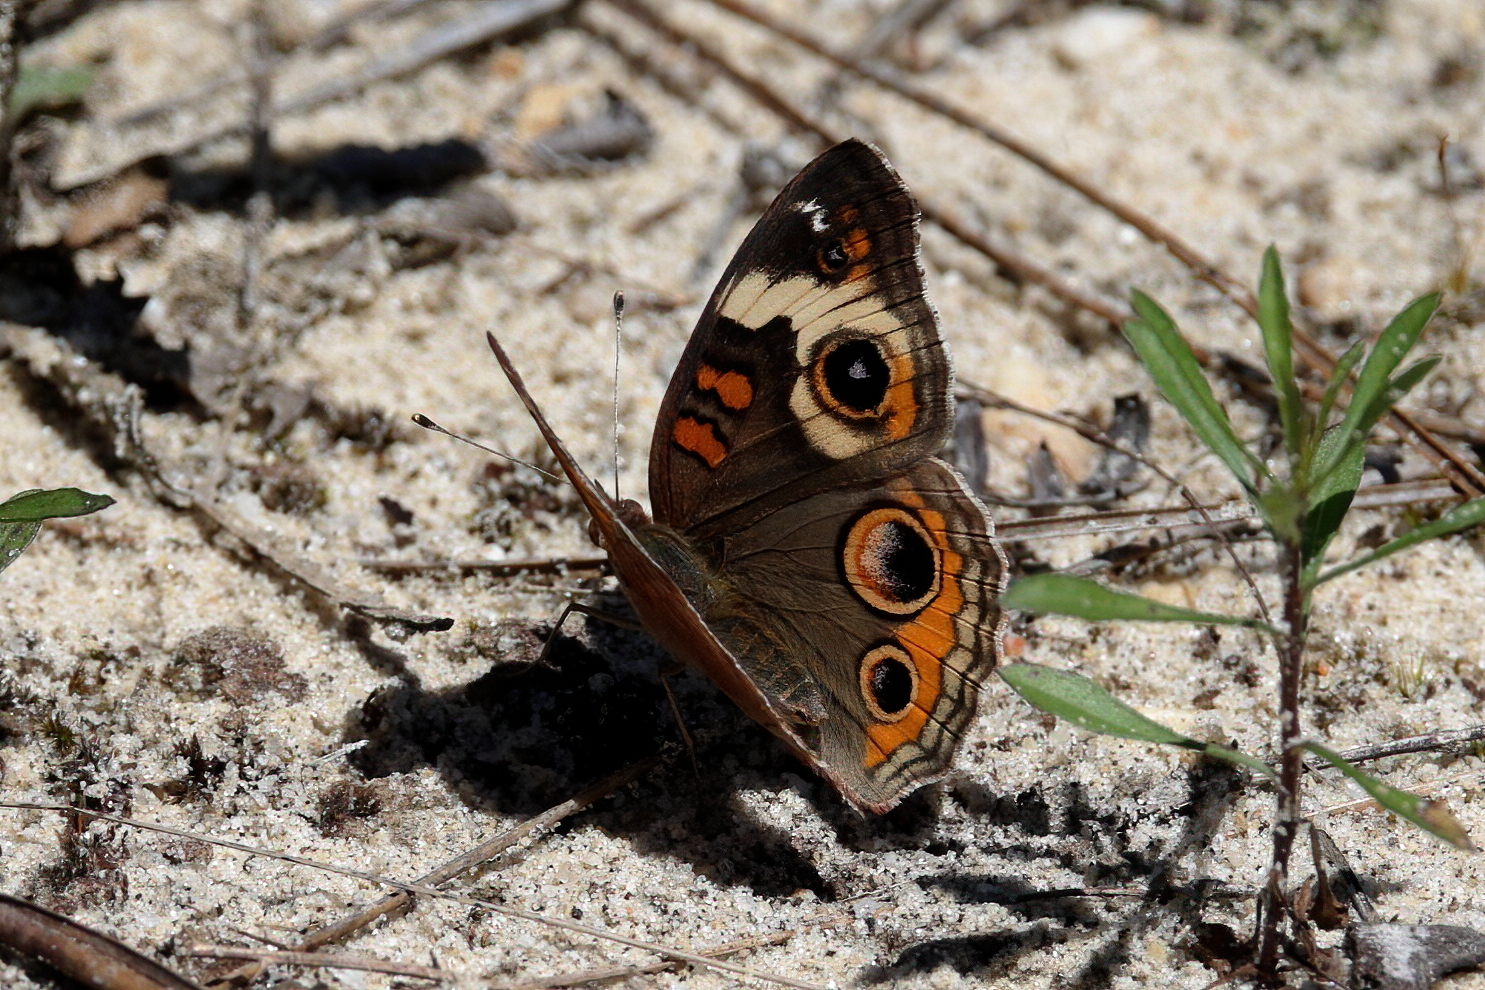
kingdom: Animalia
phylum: Arthropoda
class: Insecta
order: Lepidoptera
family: Nymphalidae
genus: Junonia
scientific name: Junonia coenia
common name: Common buckeye
